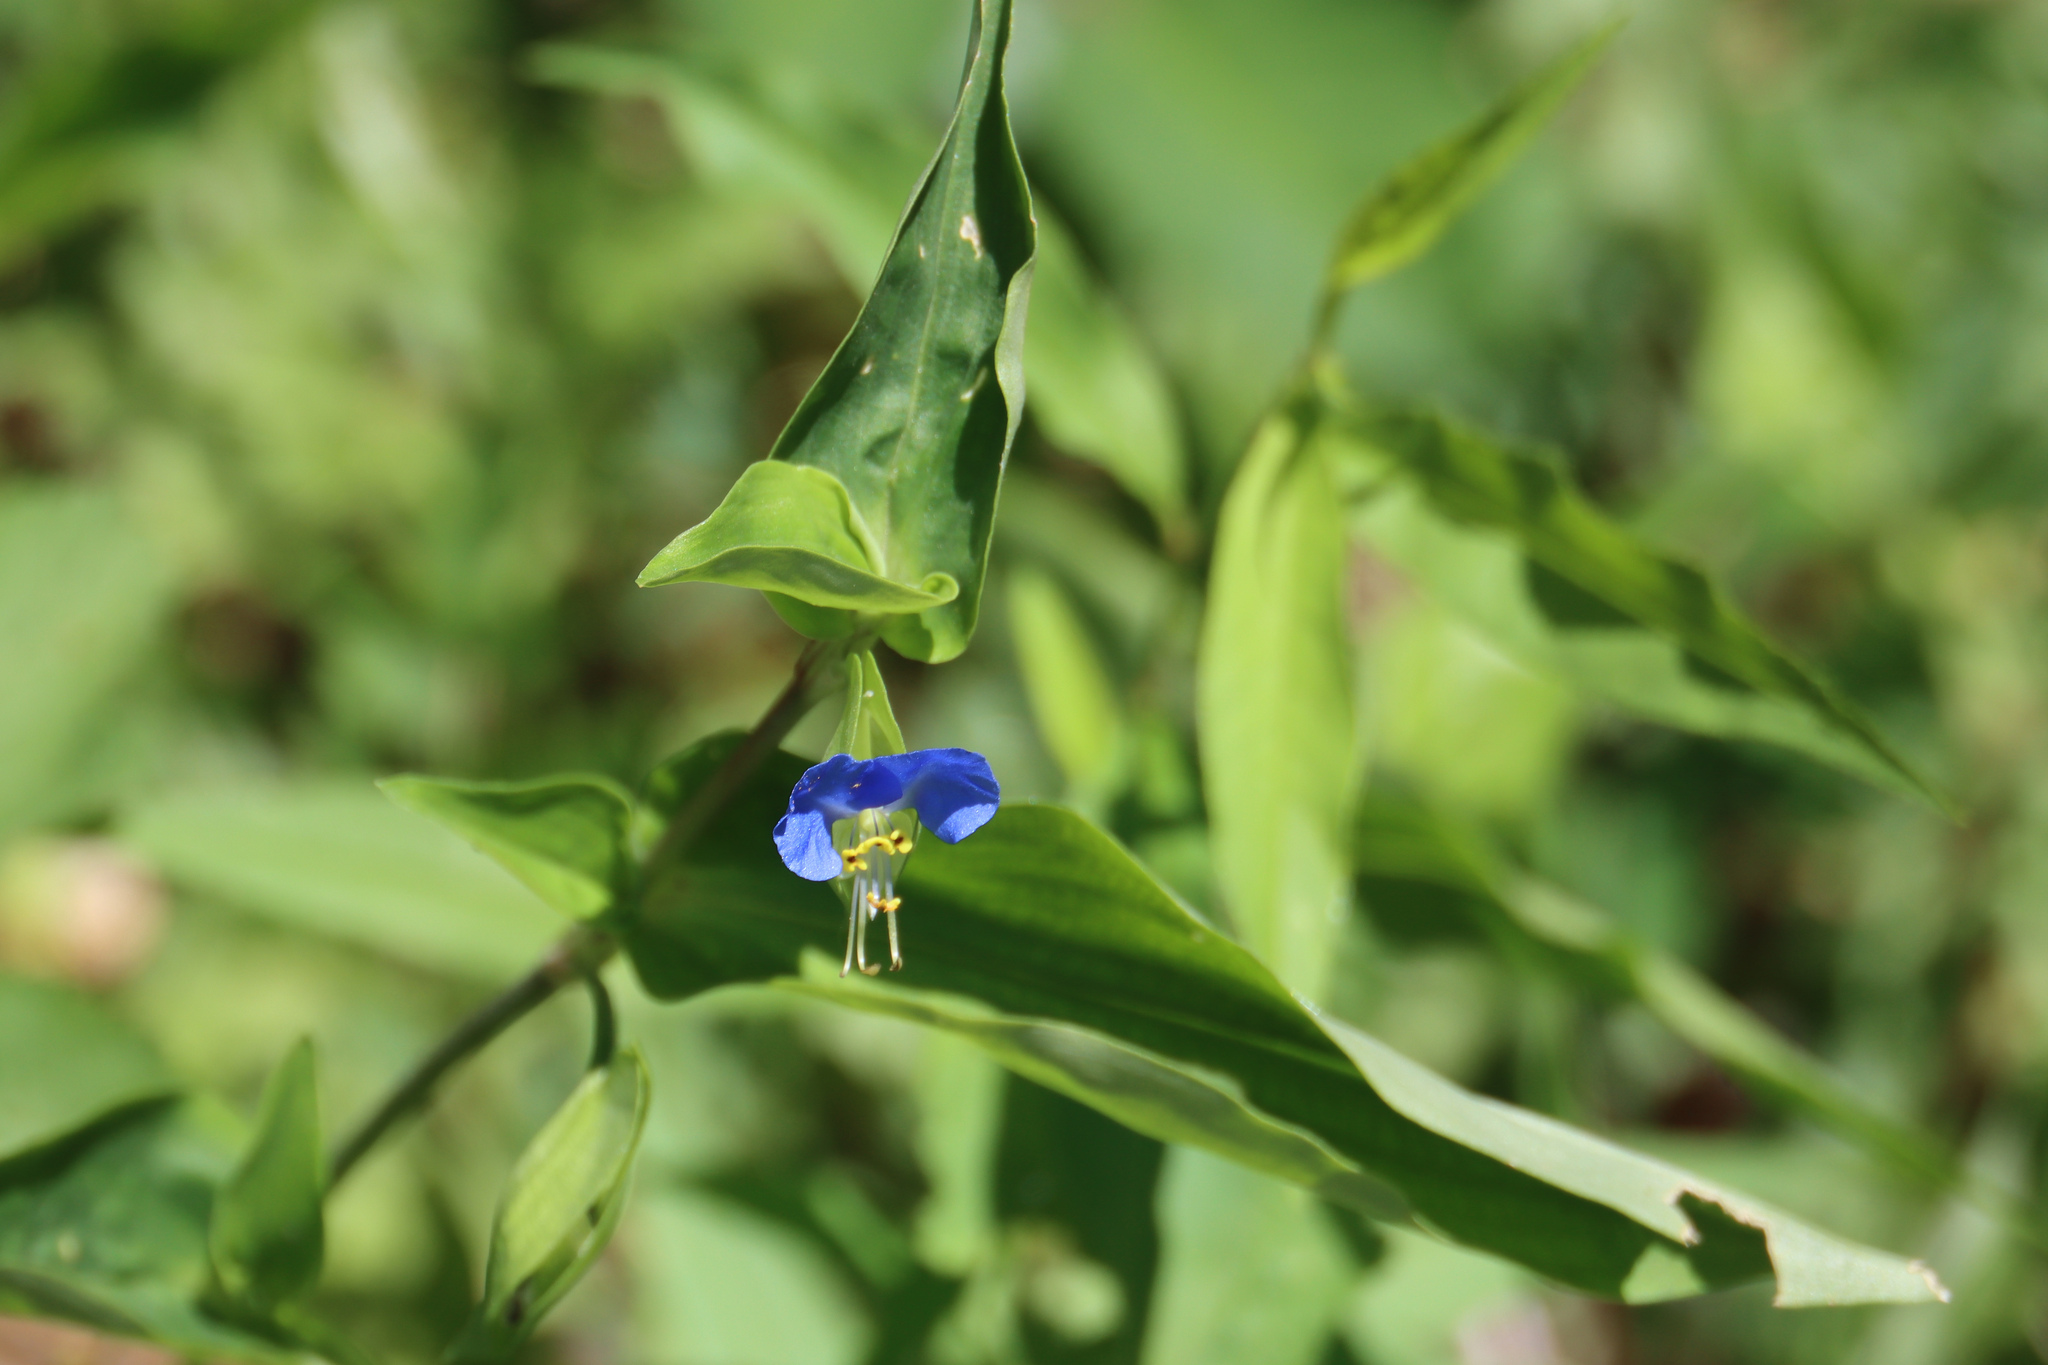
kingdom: Plantae
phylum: Tracheophyta
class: Liliopsida
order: Commelinales
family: Commelinaceae
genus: Commelina
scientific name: Commelina communis
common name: Asiatic dayflower
